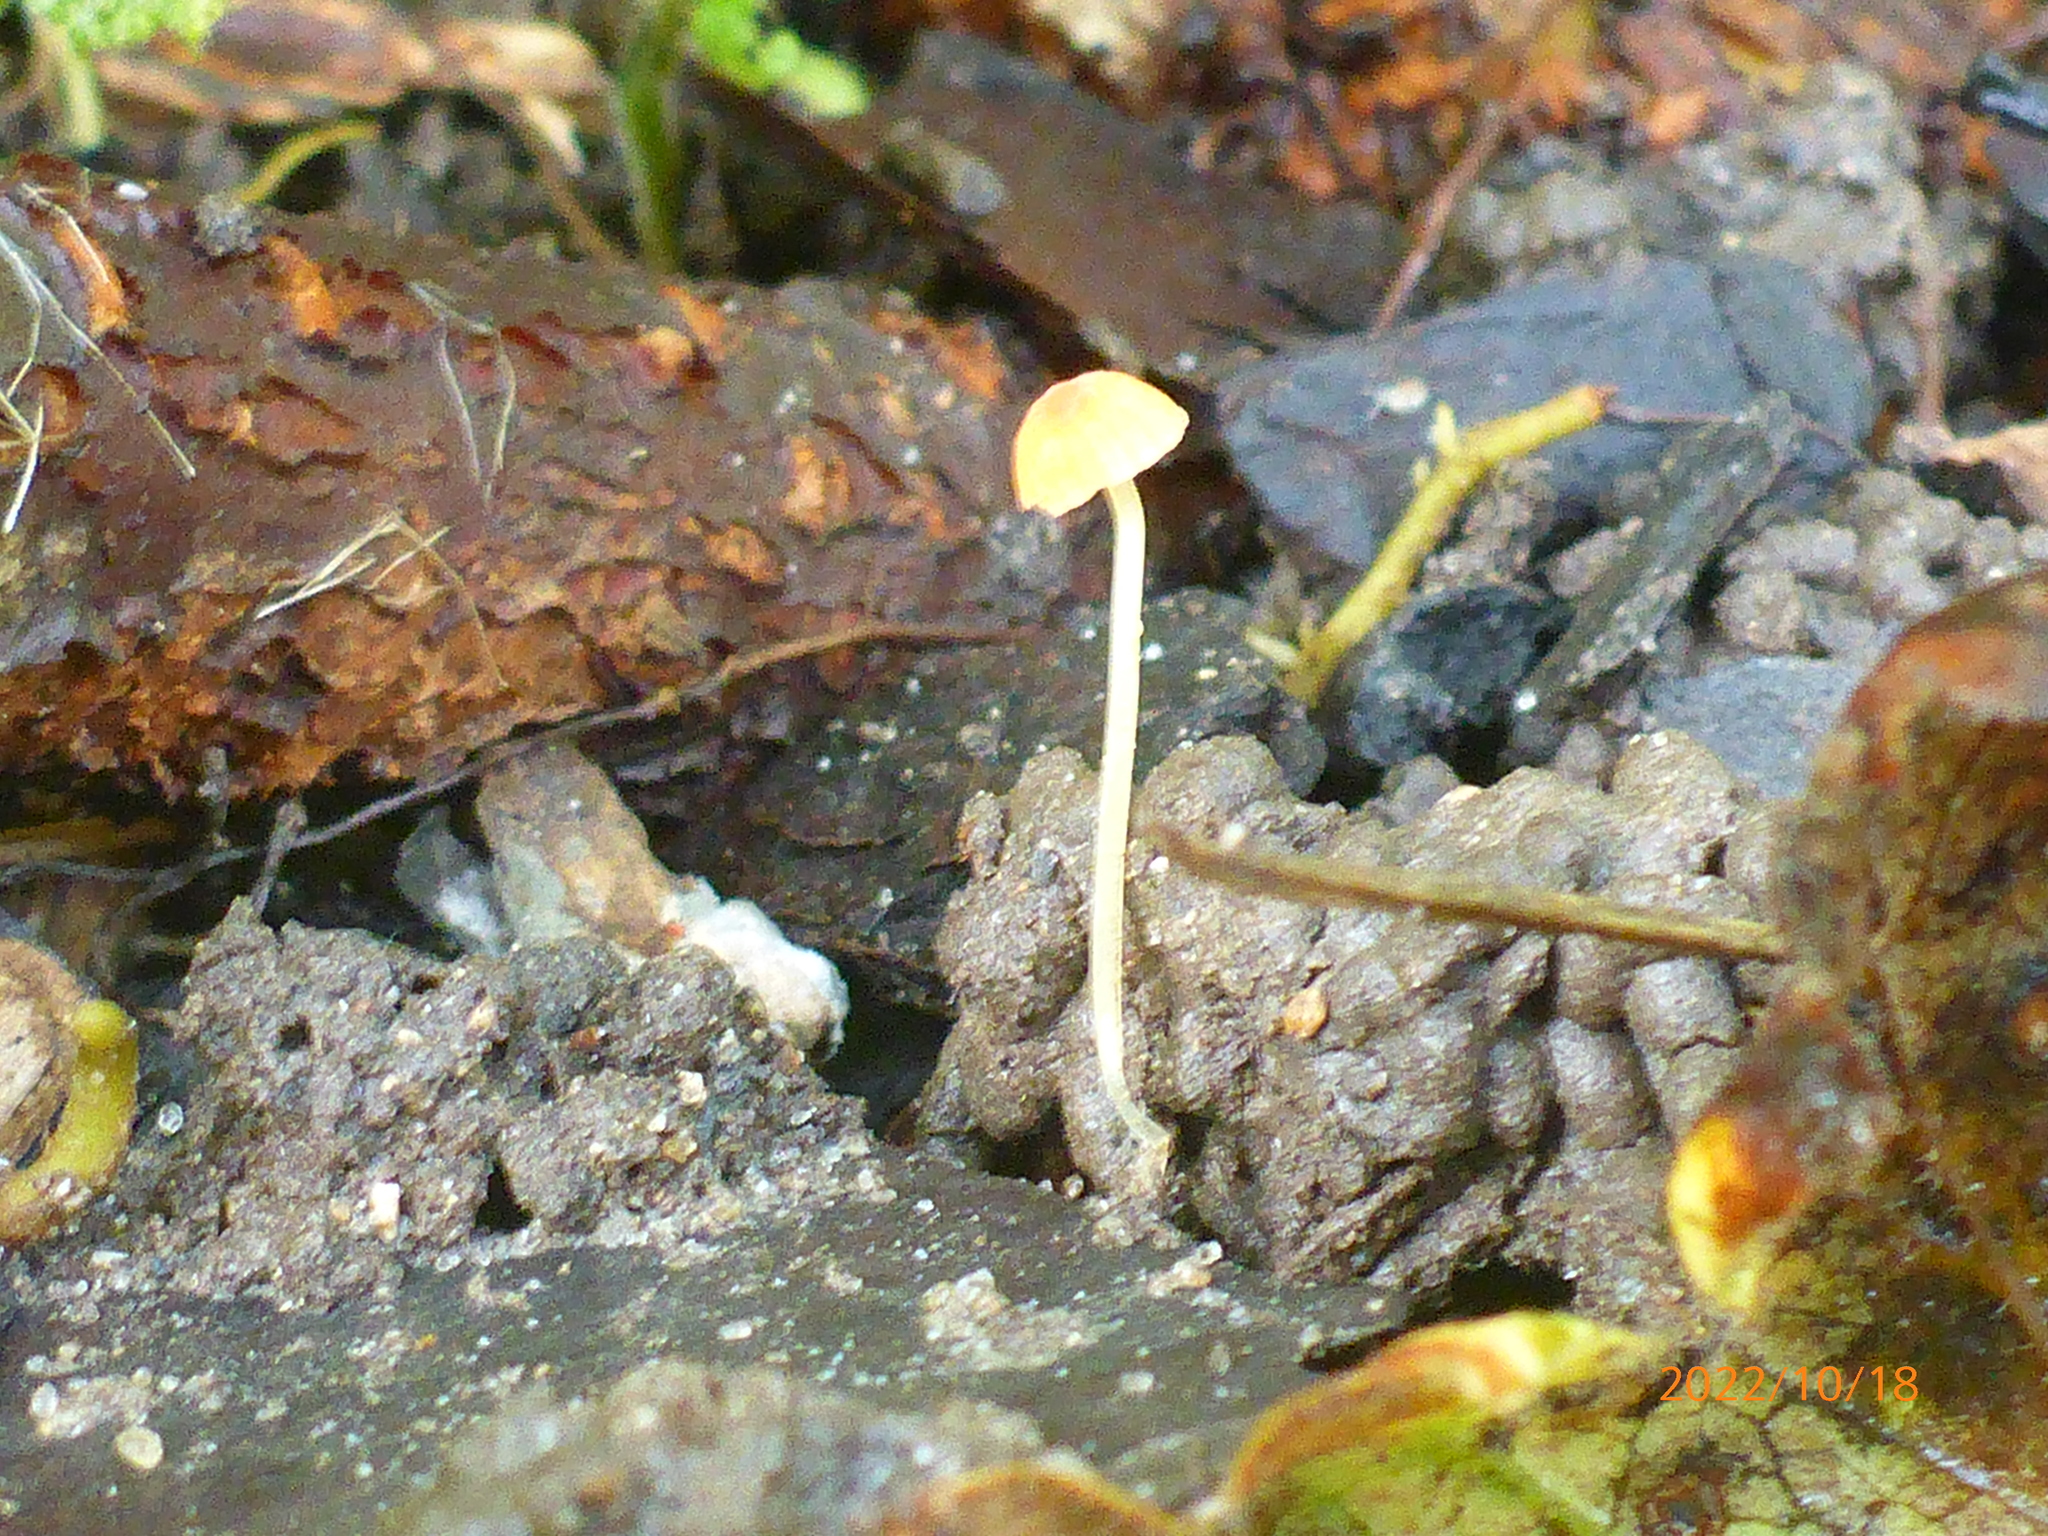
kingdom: Fungi
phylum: Basidiomycota
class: Agaricomycetes
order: Agaricales
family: Mycenaceae
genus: Mycena
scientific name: Mycena acicula
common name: Orange bonnet
